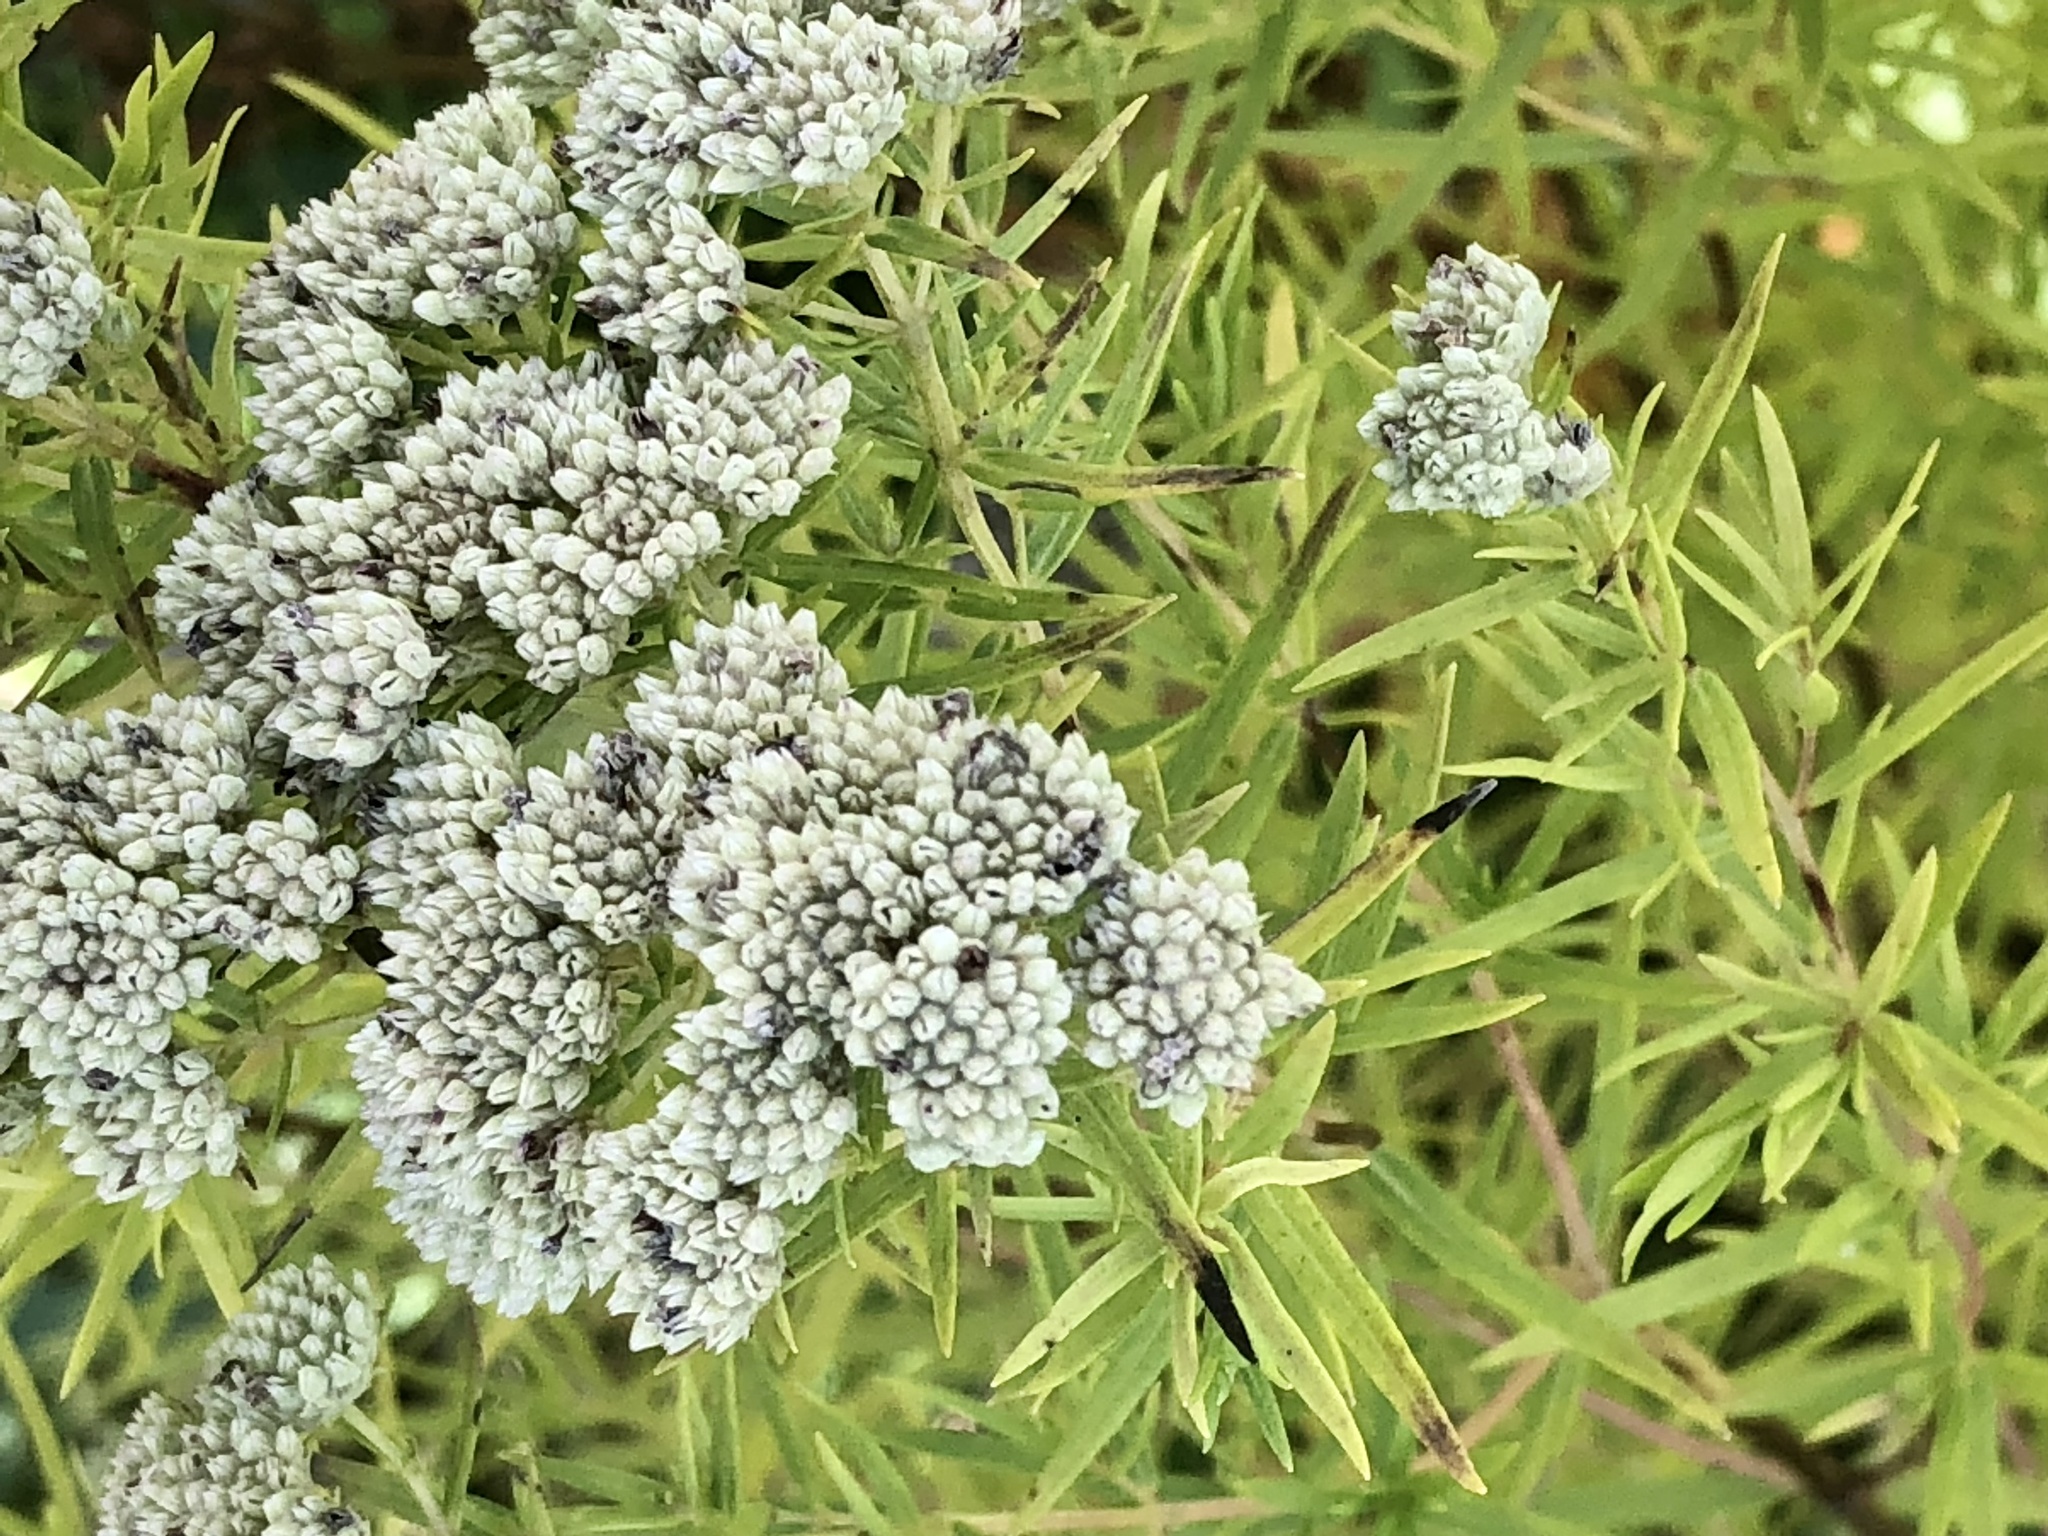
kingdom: Plantae
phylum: Tracheophyta
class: Magnoliopsida
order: Lamiales
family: Lamiaceae
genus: Pycnanthemum
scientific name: Pycnanthemum tenuifolium
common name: Narrow-leaf mountain-mint
